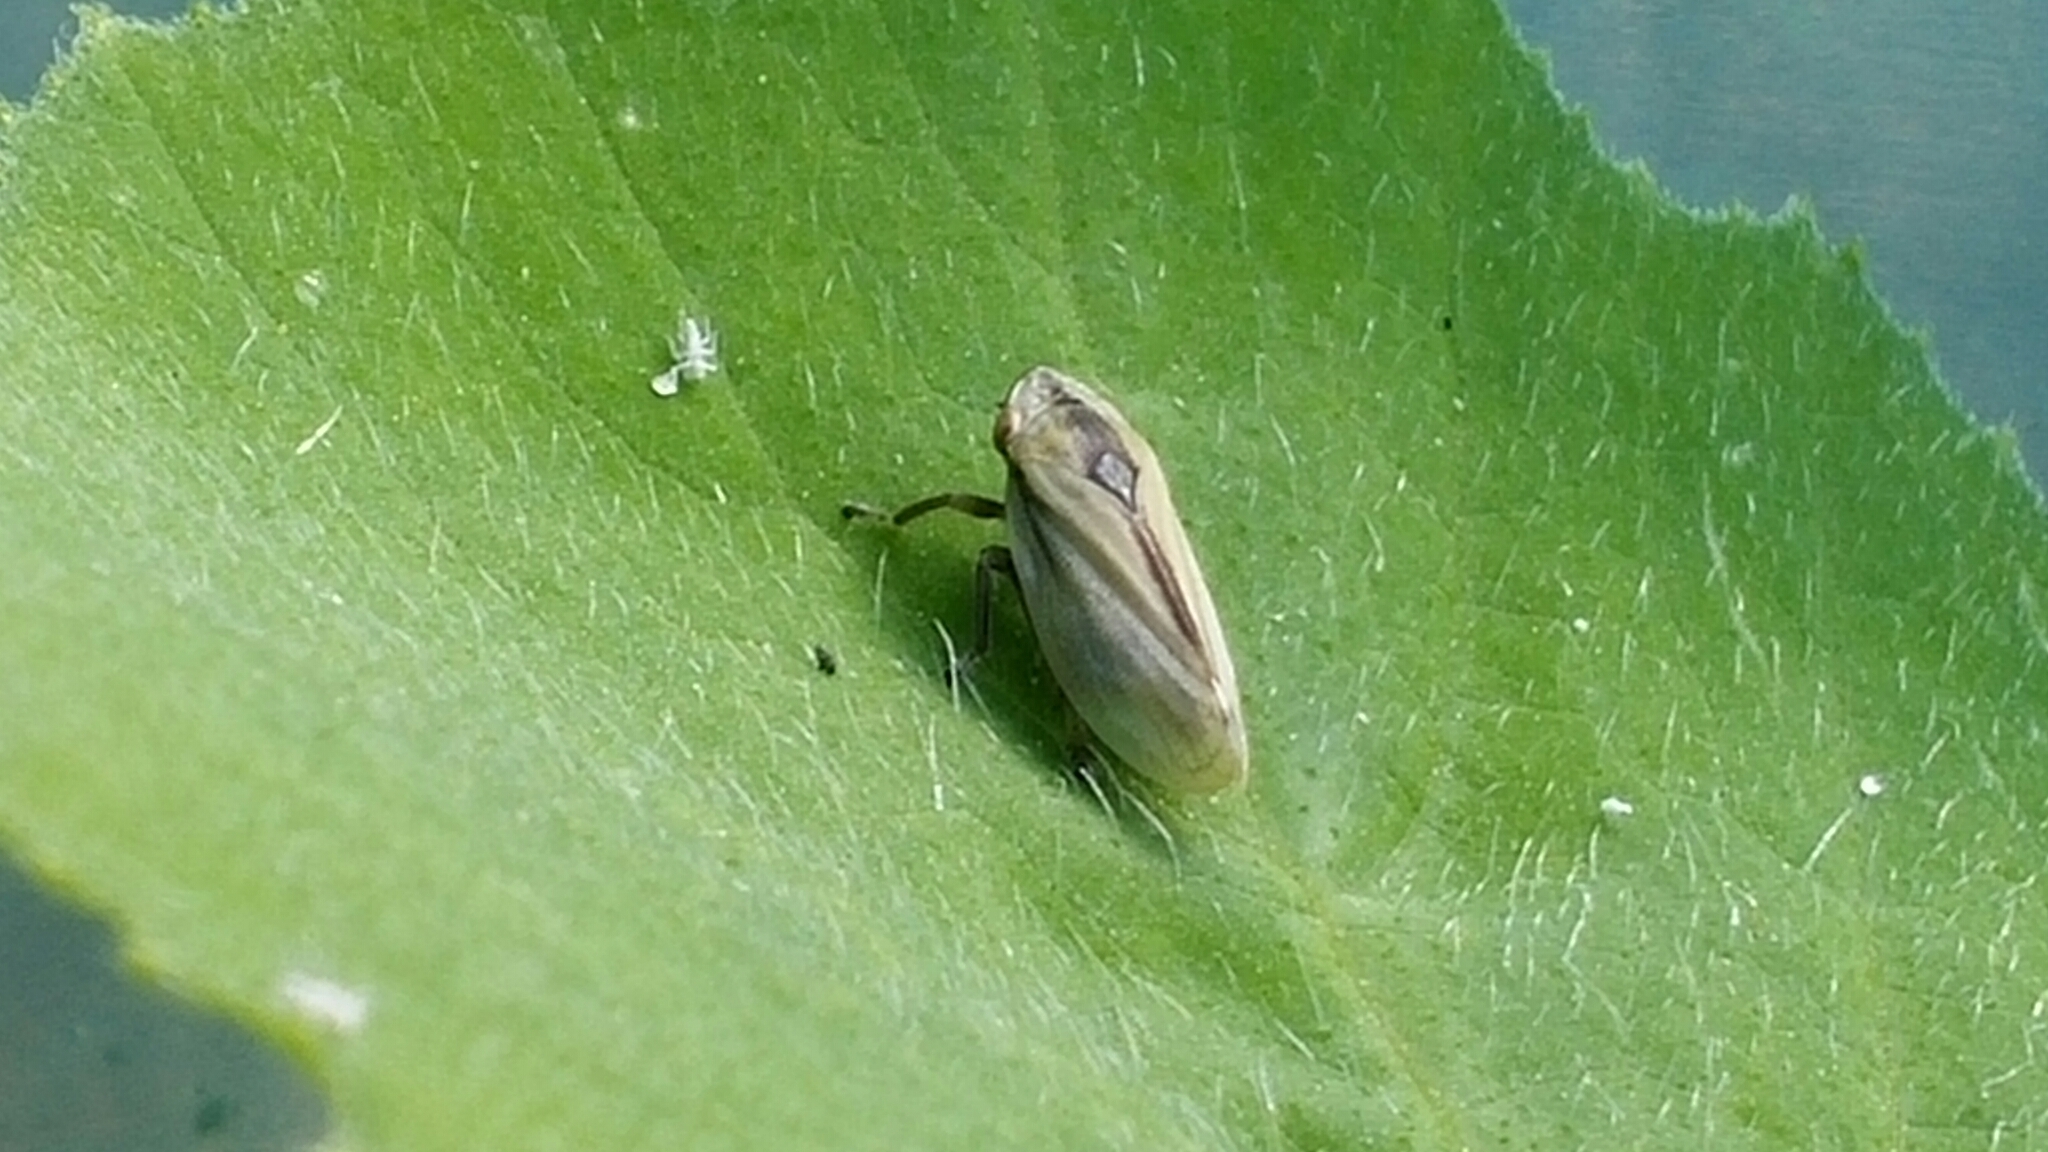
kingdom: Animalia
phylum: Arthropoda
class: Insecta
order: Hemiptera
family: Aphrophoridae
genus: Philaenus
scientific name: Philaenus spumarius
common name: Meadow spittlebug
